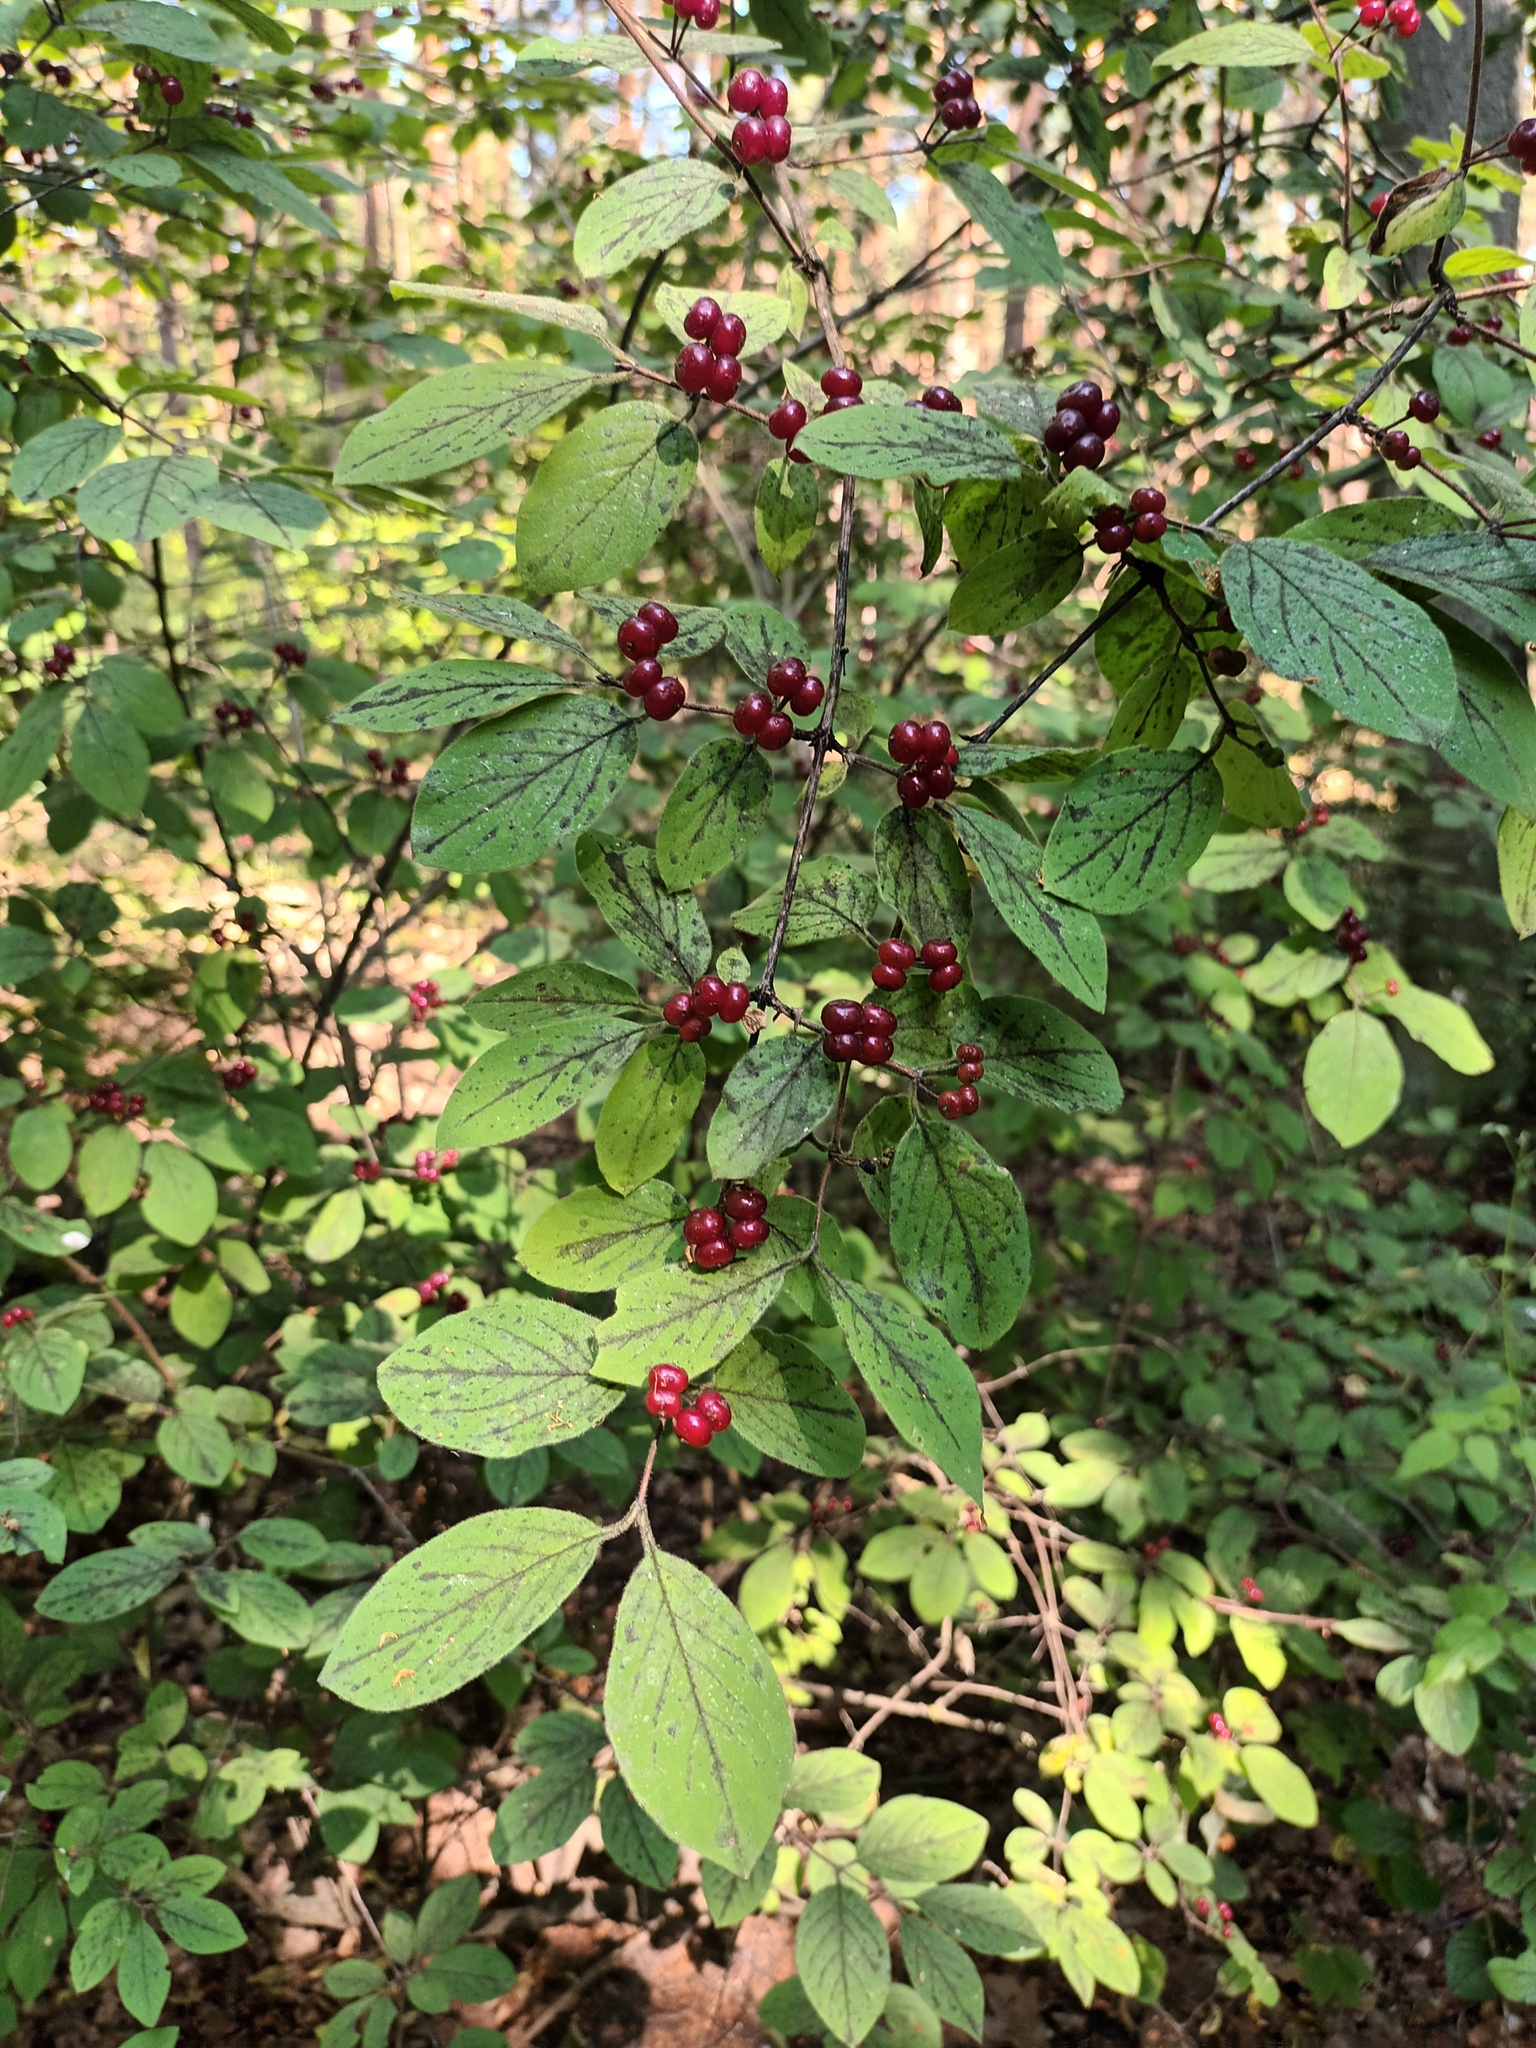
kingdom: Plantae
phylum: Tracheophyta
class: Magnoliopsida
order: Dipsacales
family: Caprifoliaceae
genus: Lonicera
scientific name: Lonicera xylosteum
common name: Fly honeysuckle
